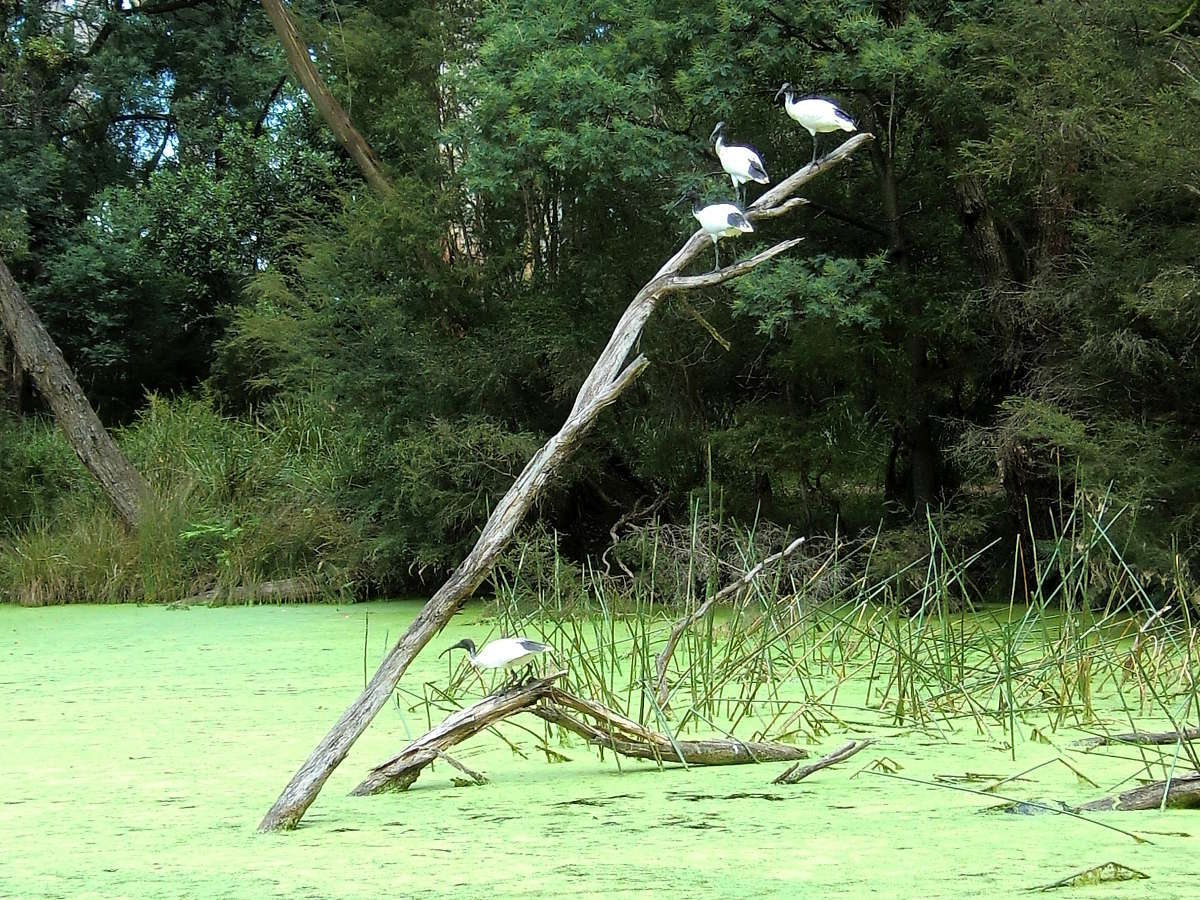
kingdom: Animalia
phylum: Chordata
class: Aves
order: Pelecaniformes
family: Threskiornithidae
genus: Threskiornis
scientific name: Threskiornis molucca
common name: Australian white ibis
